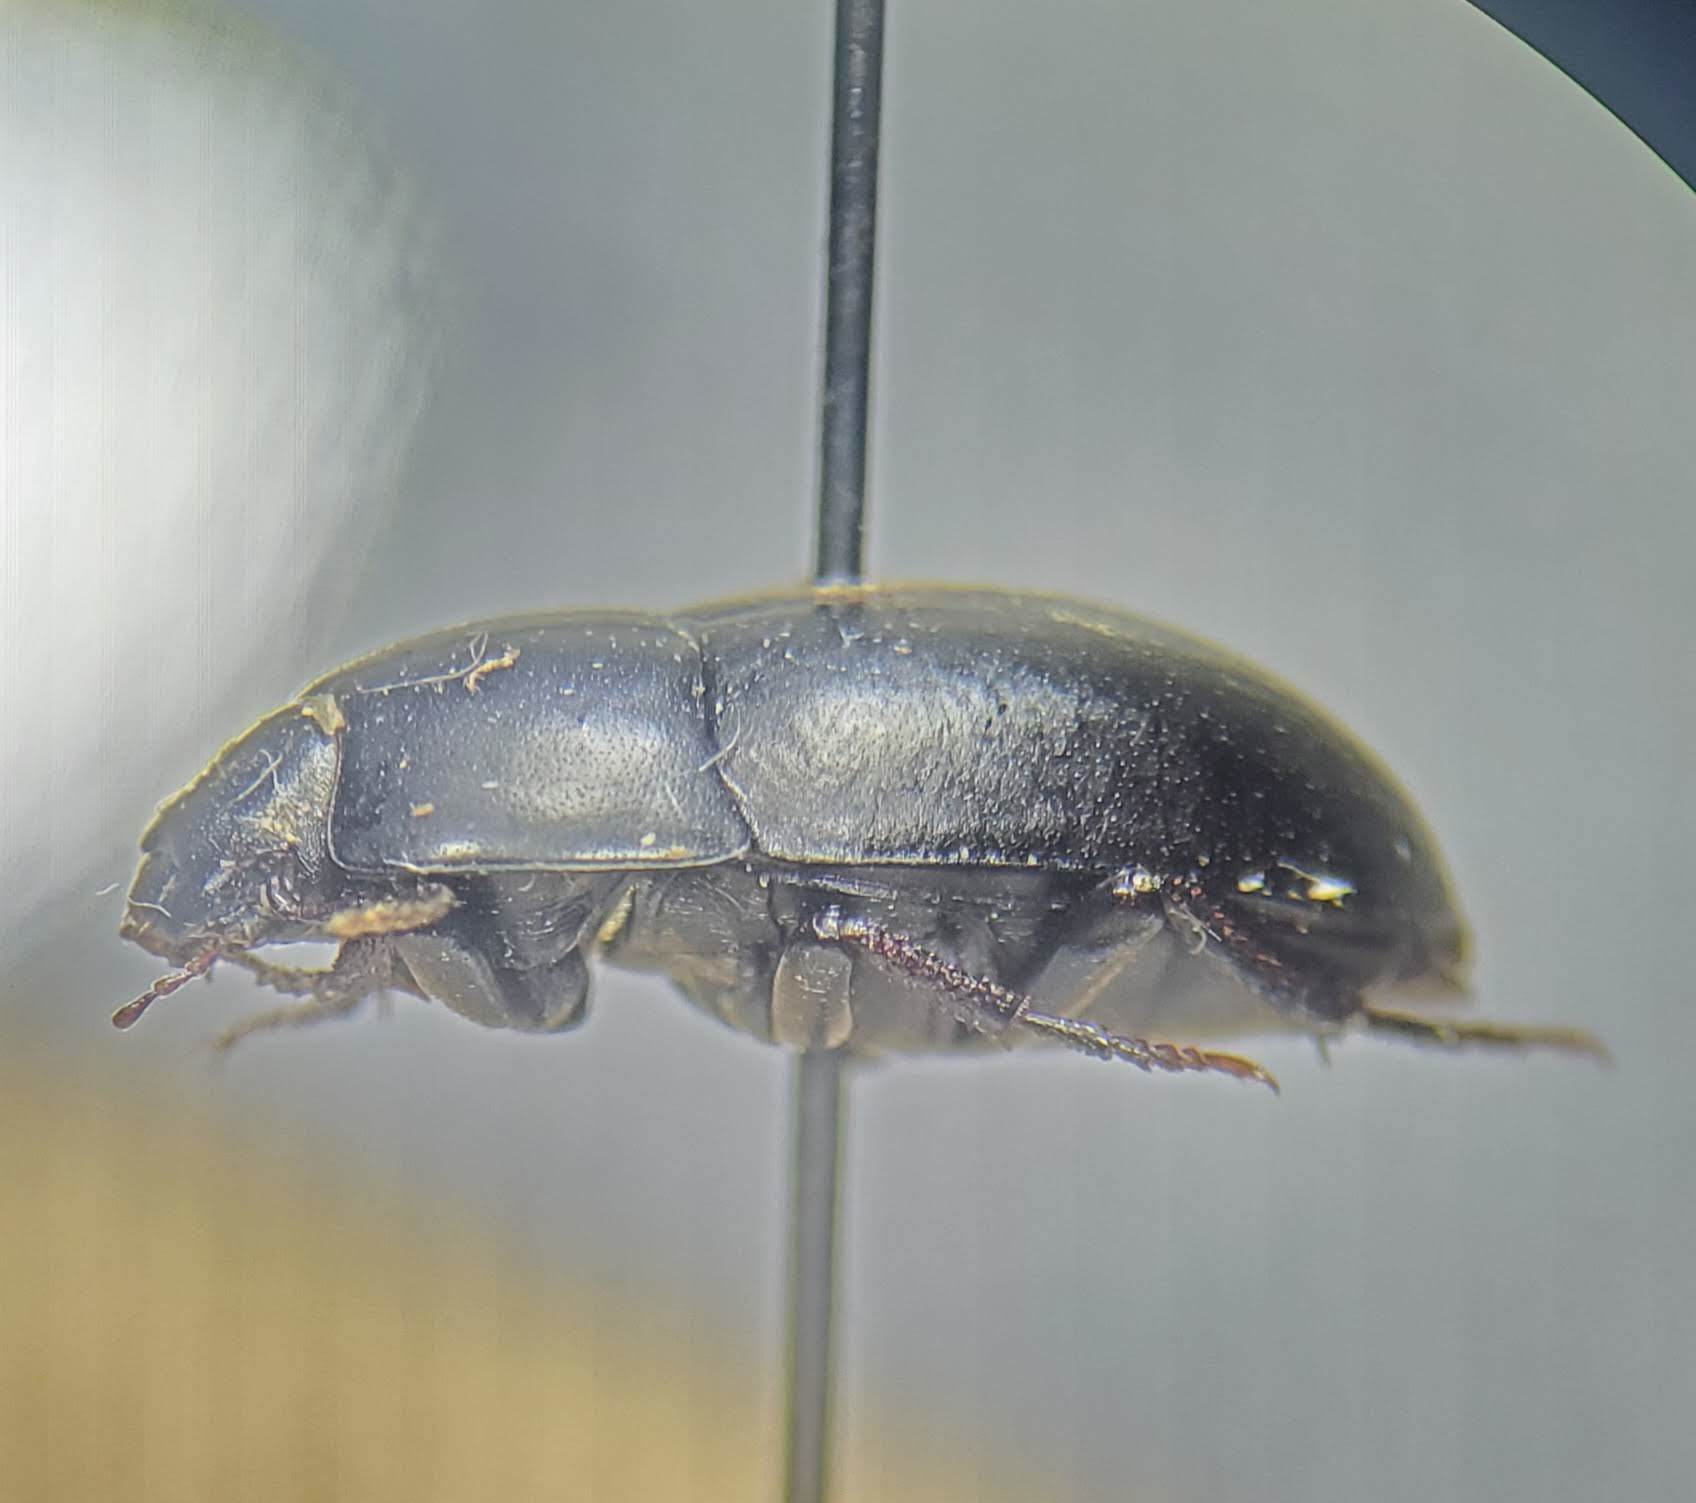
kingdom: Animalia
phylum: Arthropoda
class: Insecta
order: Coleoptera
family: Tenebrionidae
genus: Coniontis
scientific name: Coniontis
